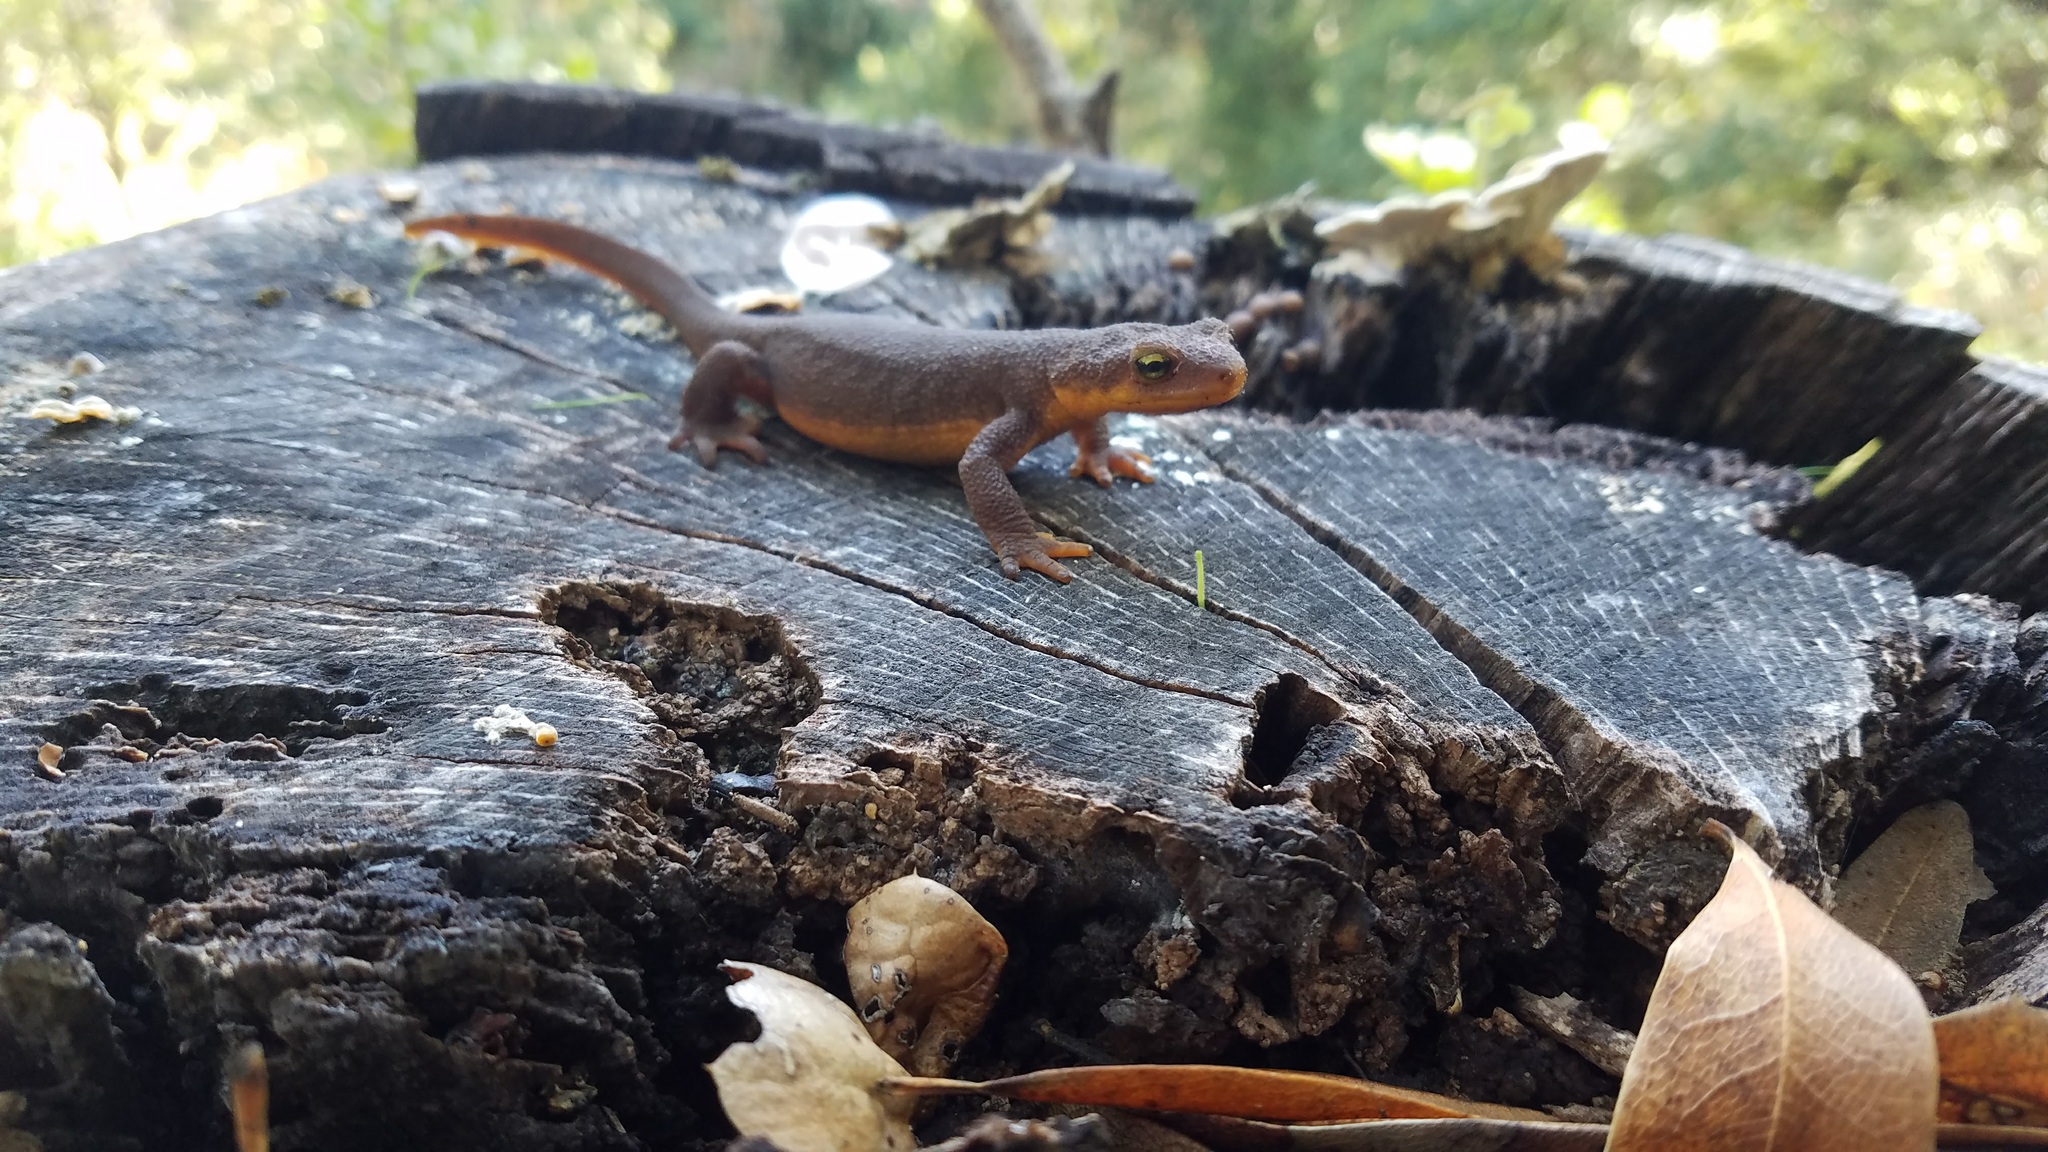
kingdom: Animalia
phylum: Chordata
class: Amphibia
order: Caudata
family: Salamandridae
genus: Taricha
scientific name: Taricha torosa
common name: California newt
